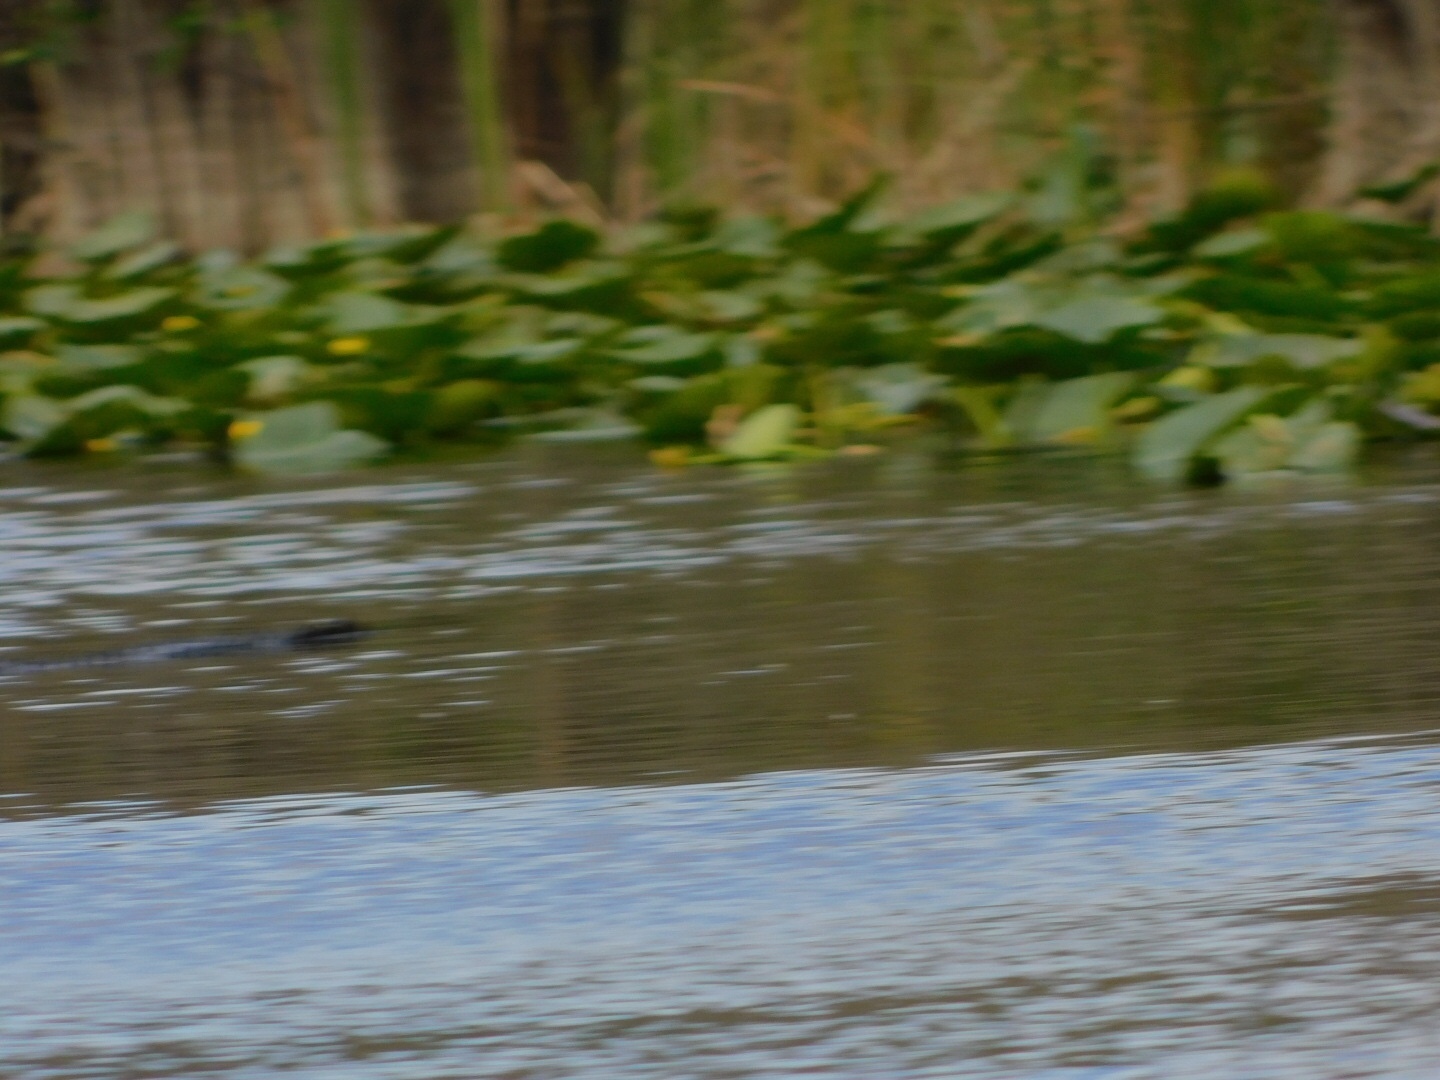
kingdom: Animalia
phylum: Chordata
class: Crocodylia
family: Alligatoridae
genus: Alligator
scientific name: Alligator mississippiensis
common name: American alligator
